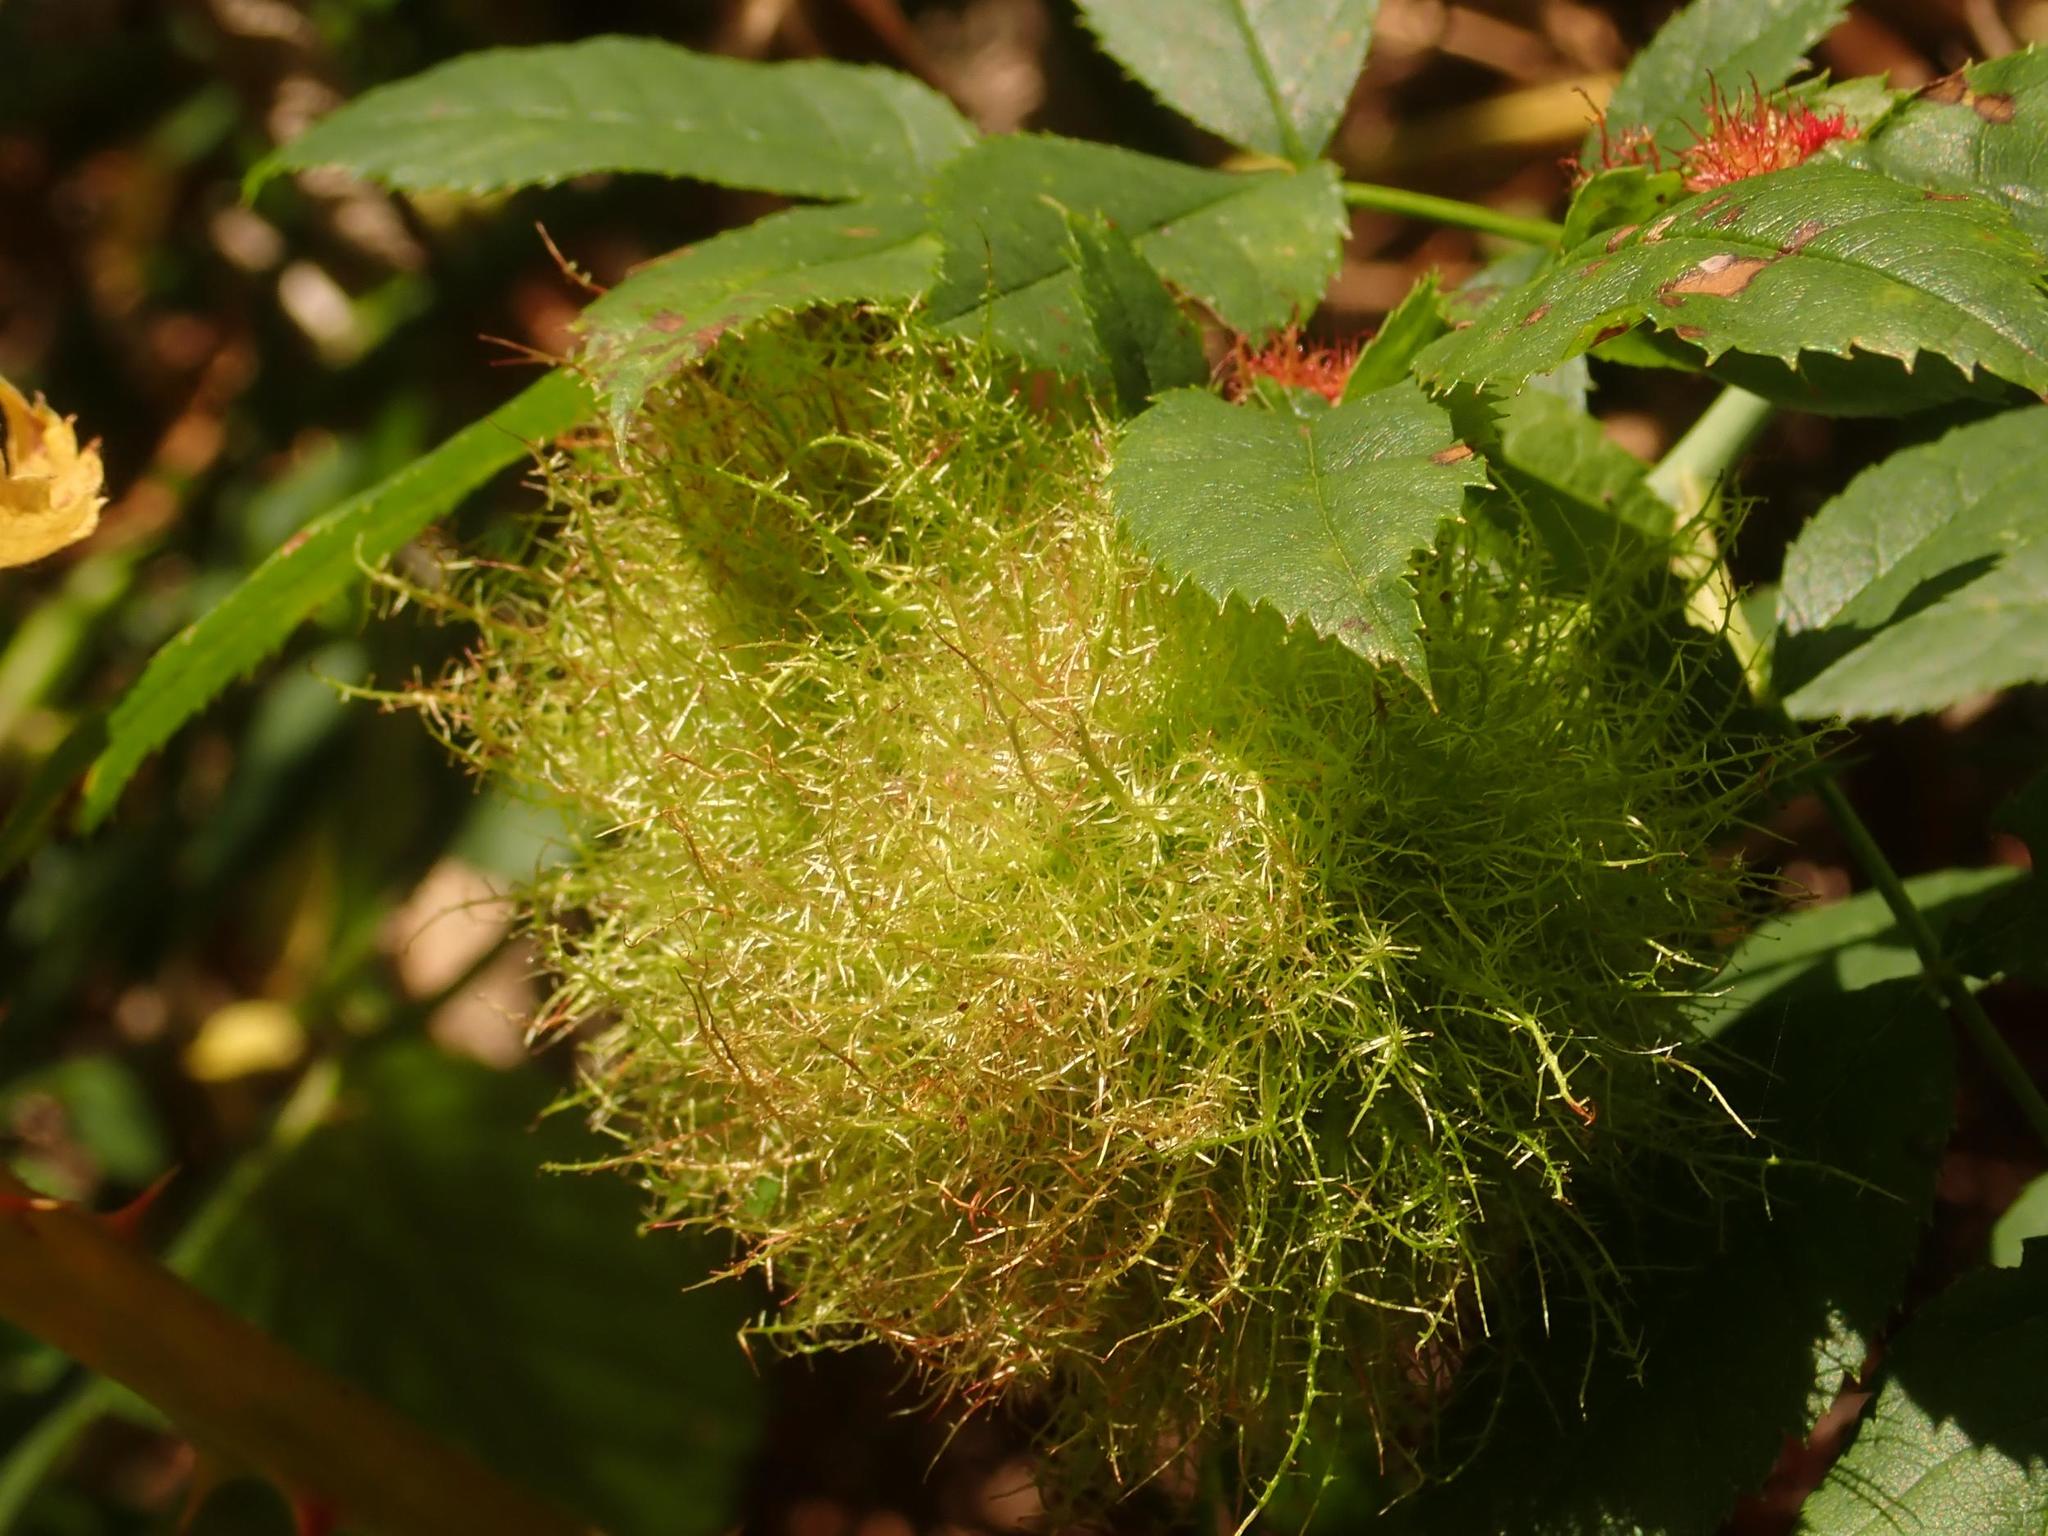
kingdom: Animalia
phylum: Arthropoda
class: Insecta
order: Hymenoptera
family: Cynipidae
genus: Diplolepis
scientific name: Diplolepis rosae
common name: Bedeguar gall
